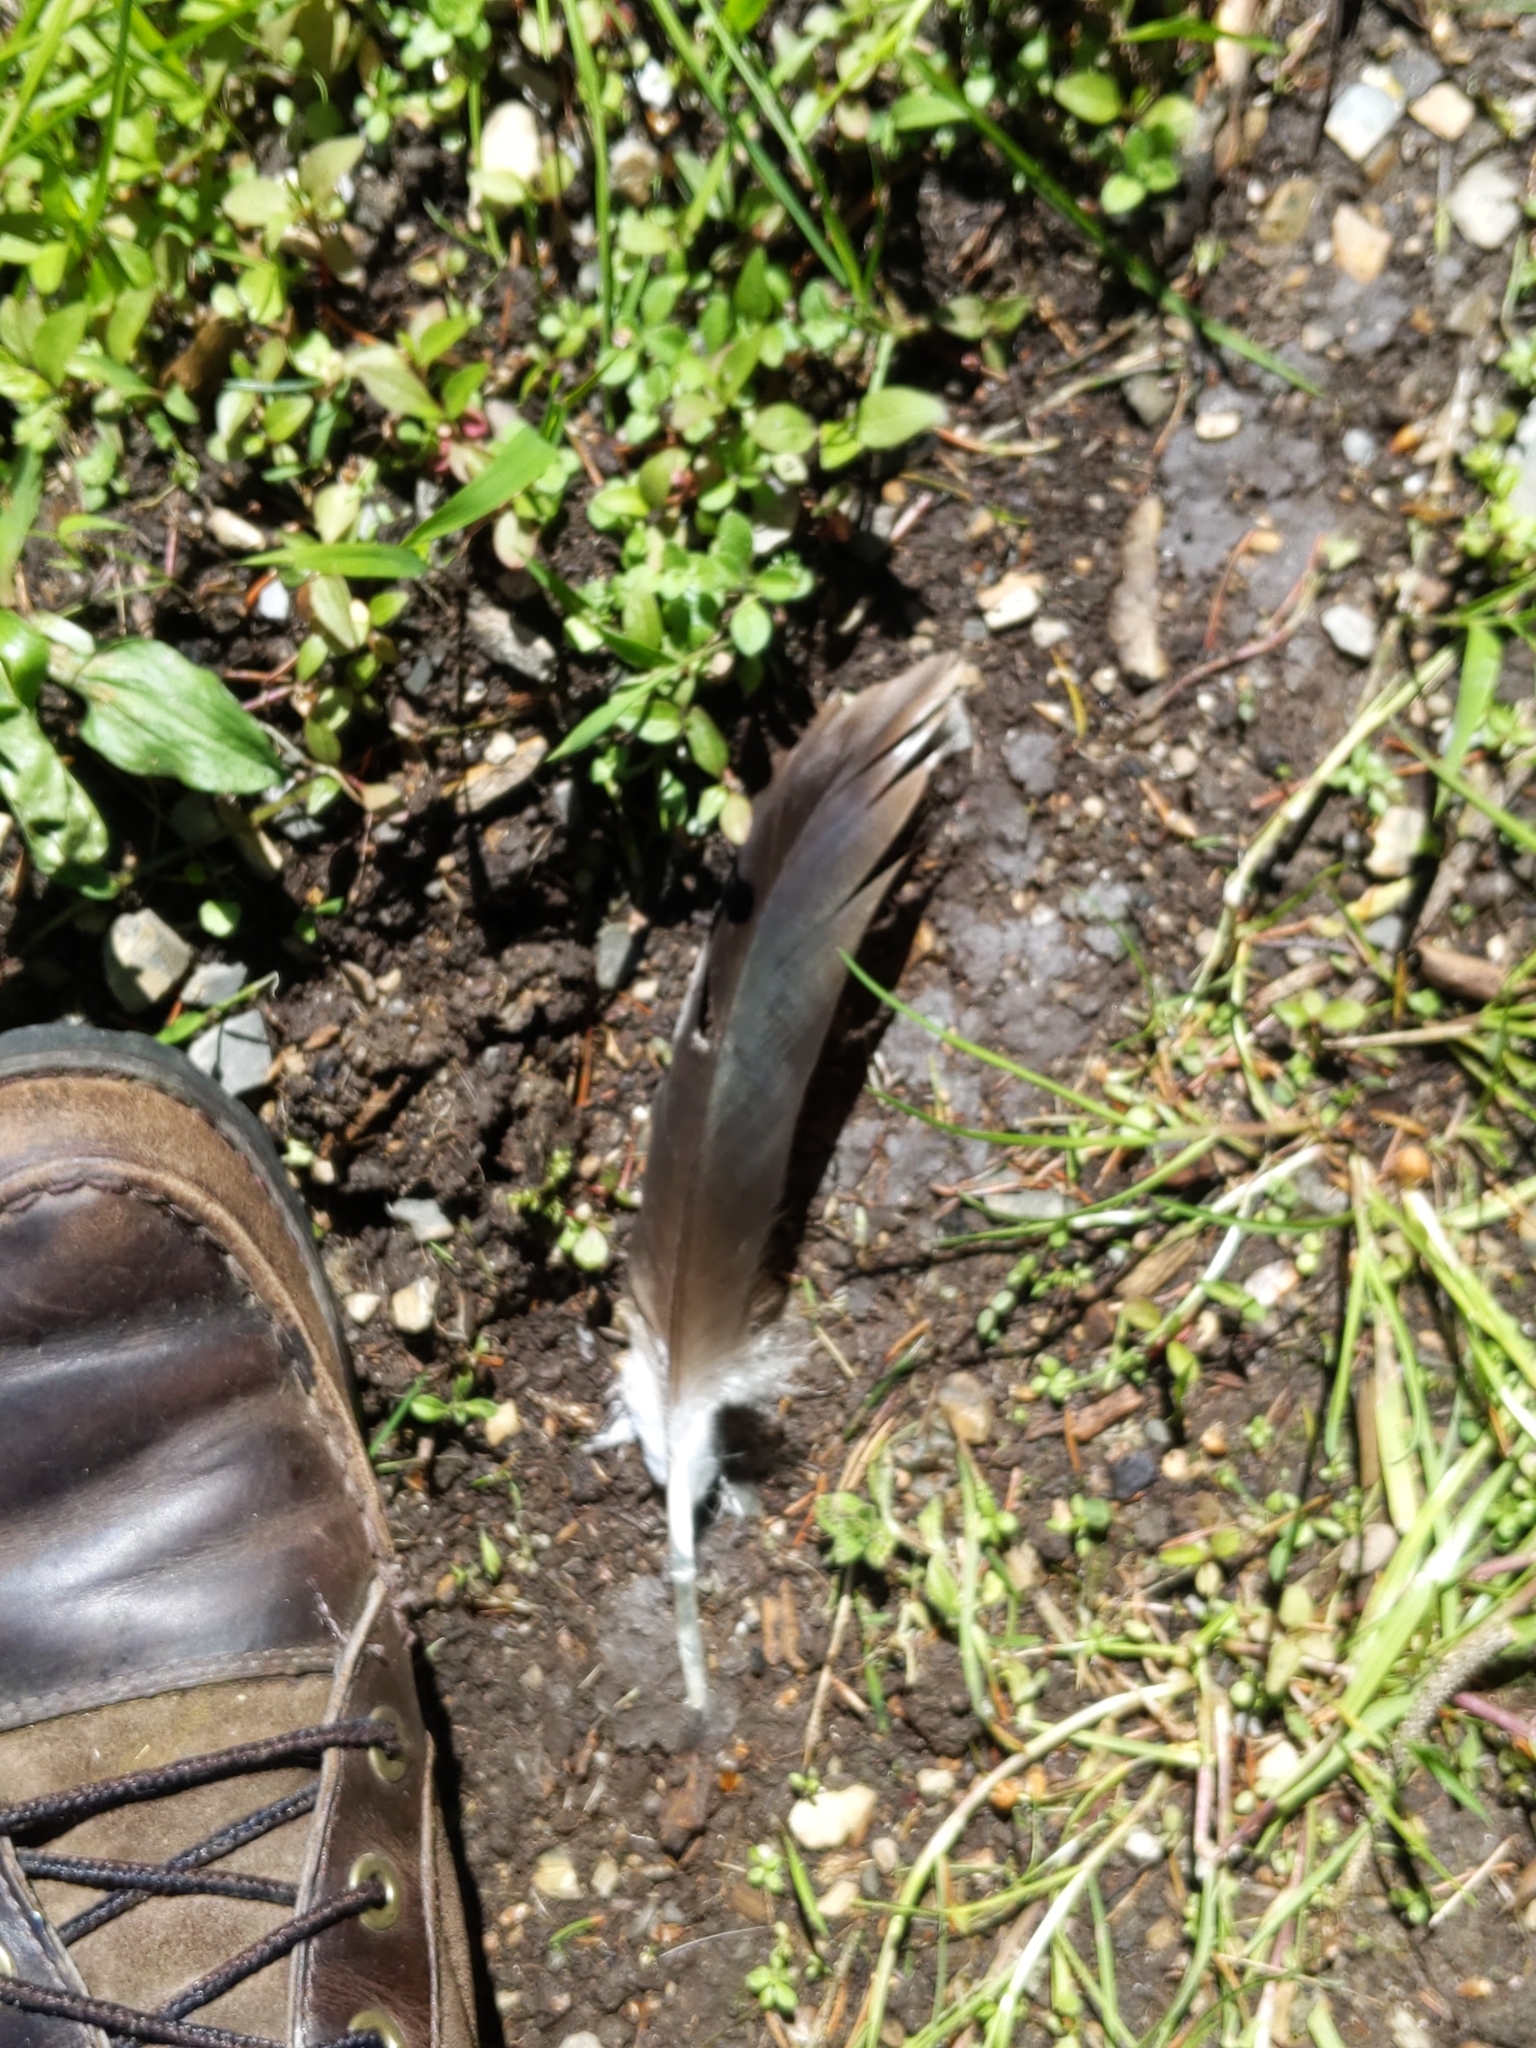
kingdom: Animalia
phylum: Chordata
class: Aves
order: Accipitriformes
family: Cathartidae
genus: Cathartes
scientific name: Cathartes aura
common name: Turkey vulture
